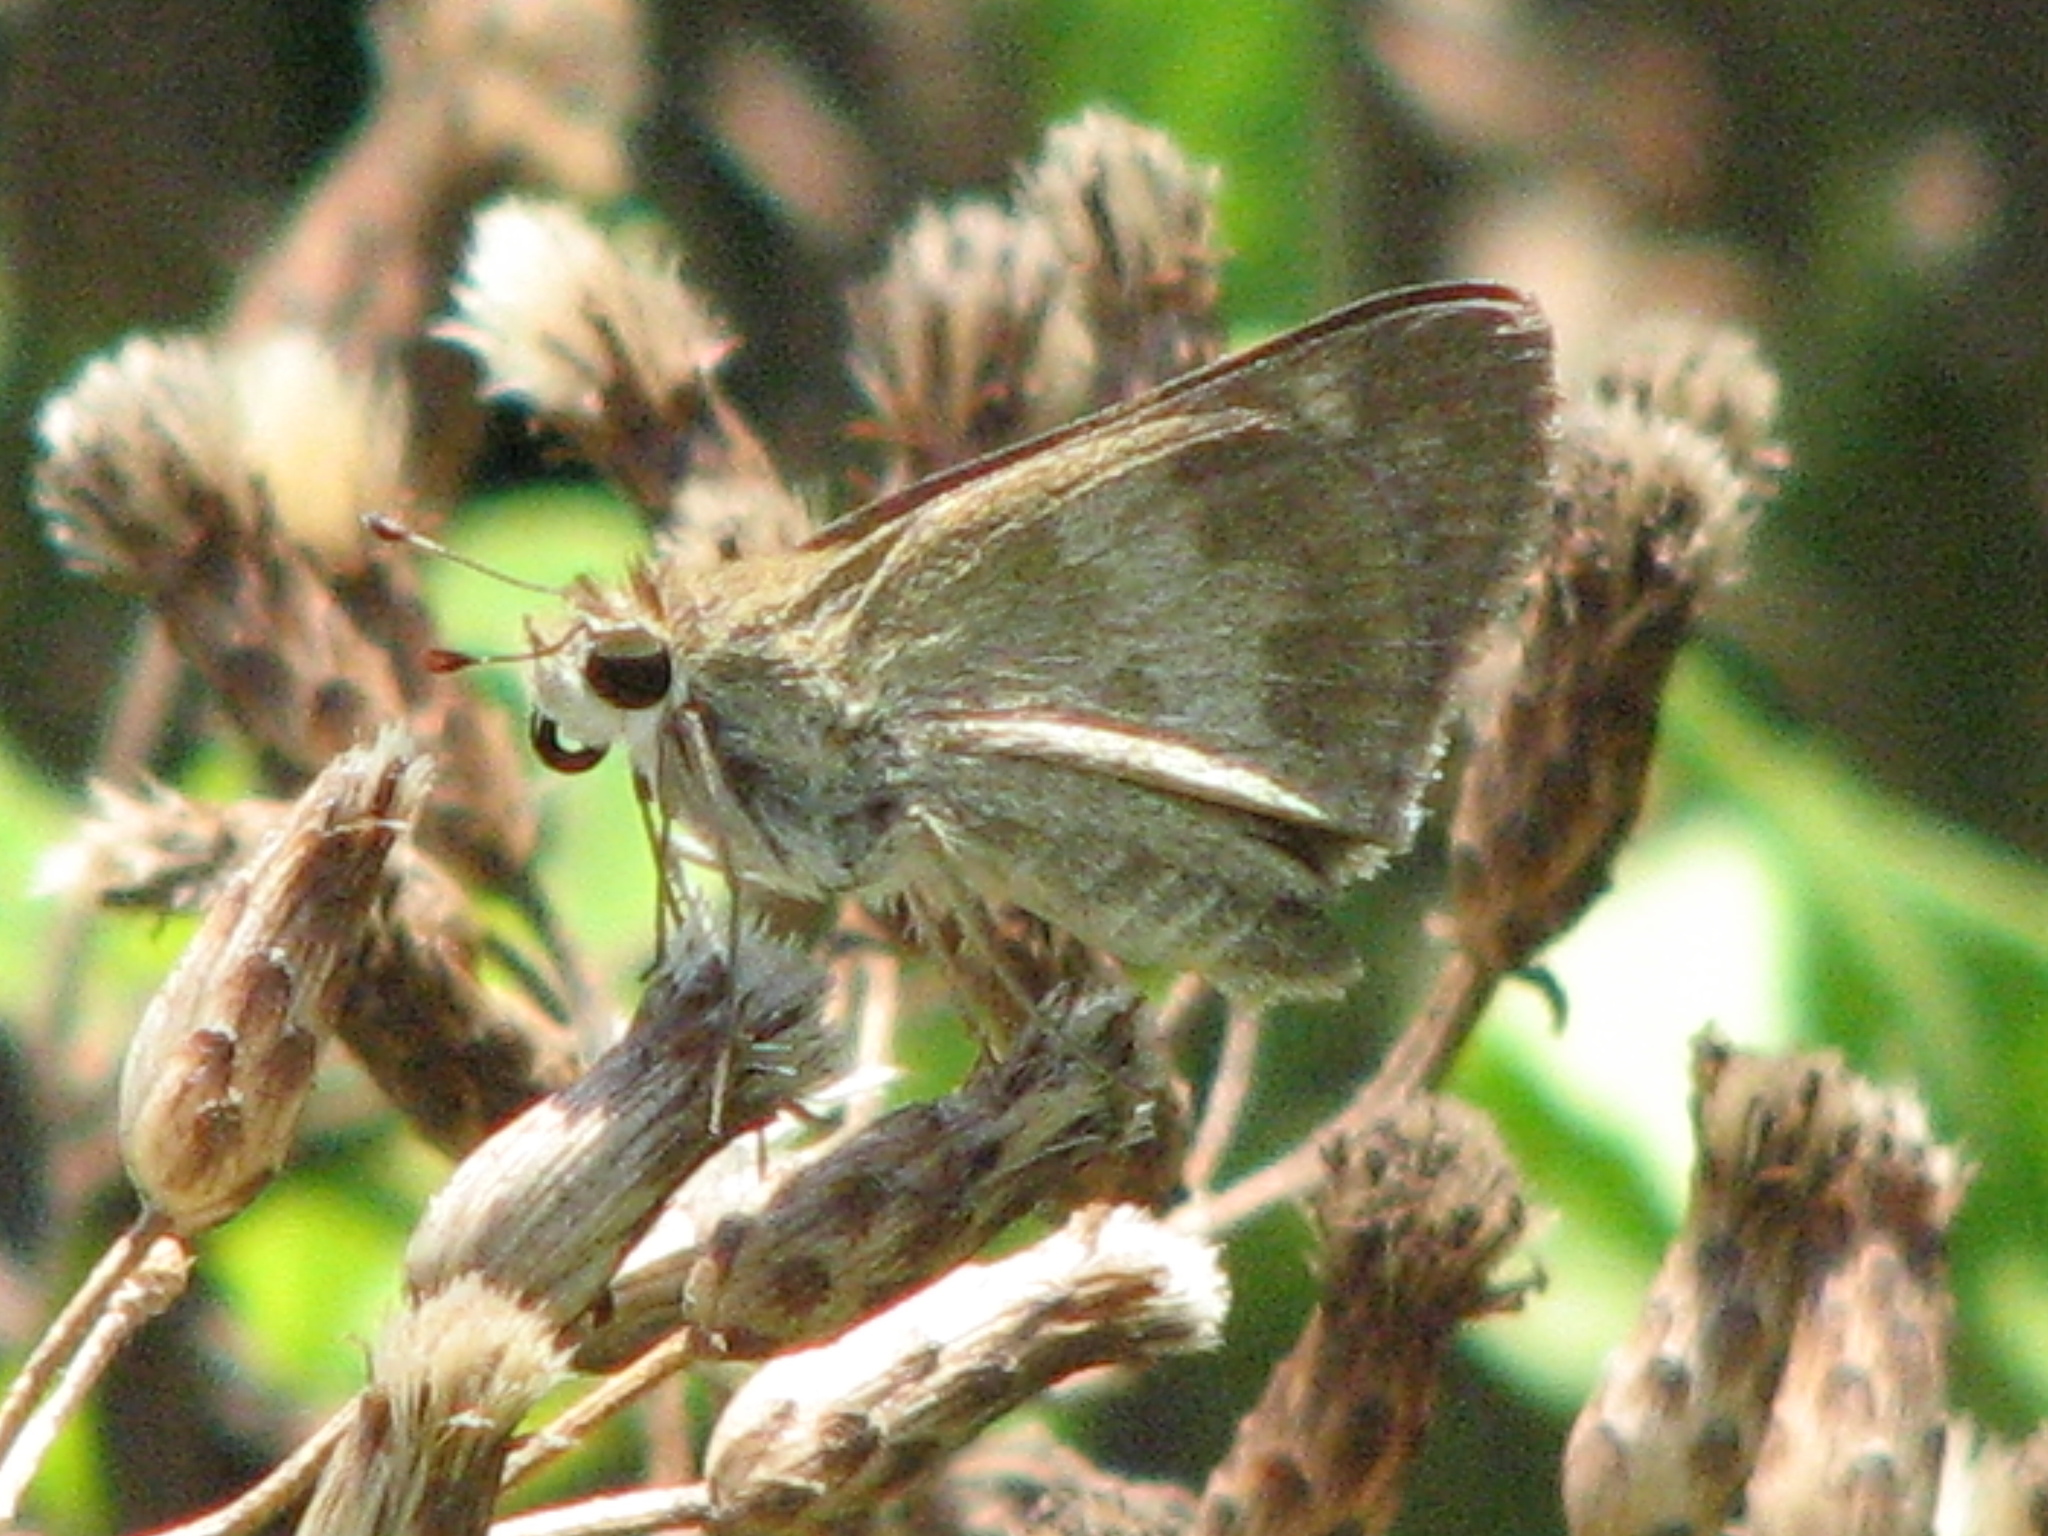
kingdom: Animalia
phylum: Arthropoda
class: Insecta
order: Lepidoptera
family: Hesperiidae
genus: Polites
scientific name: Polites vibex
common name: Whirlabout
